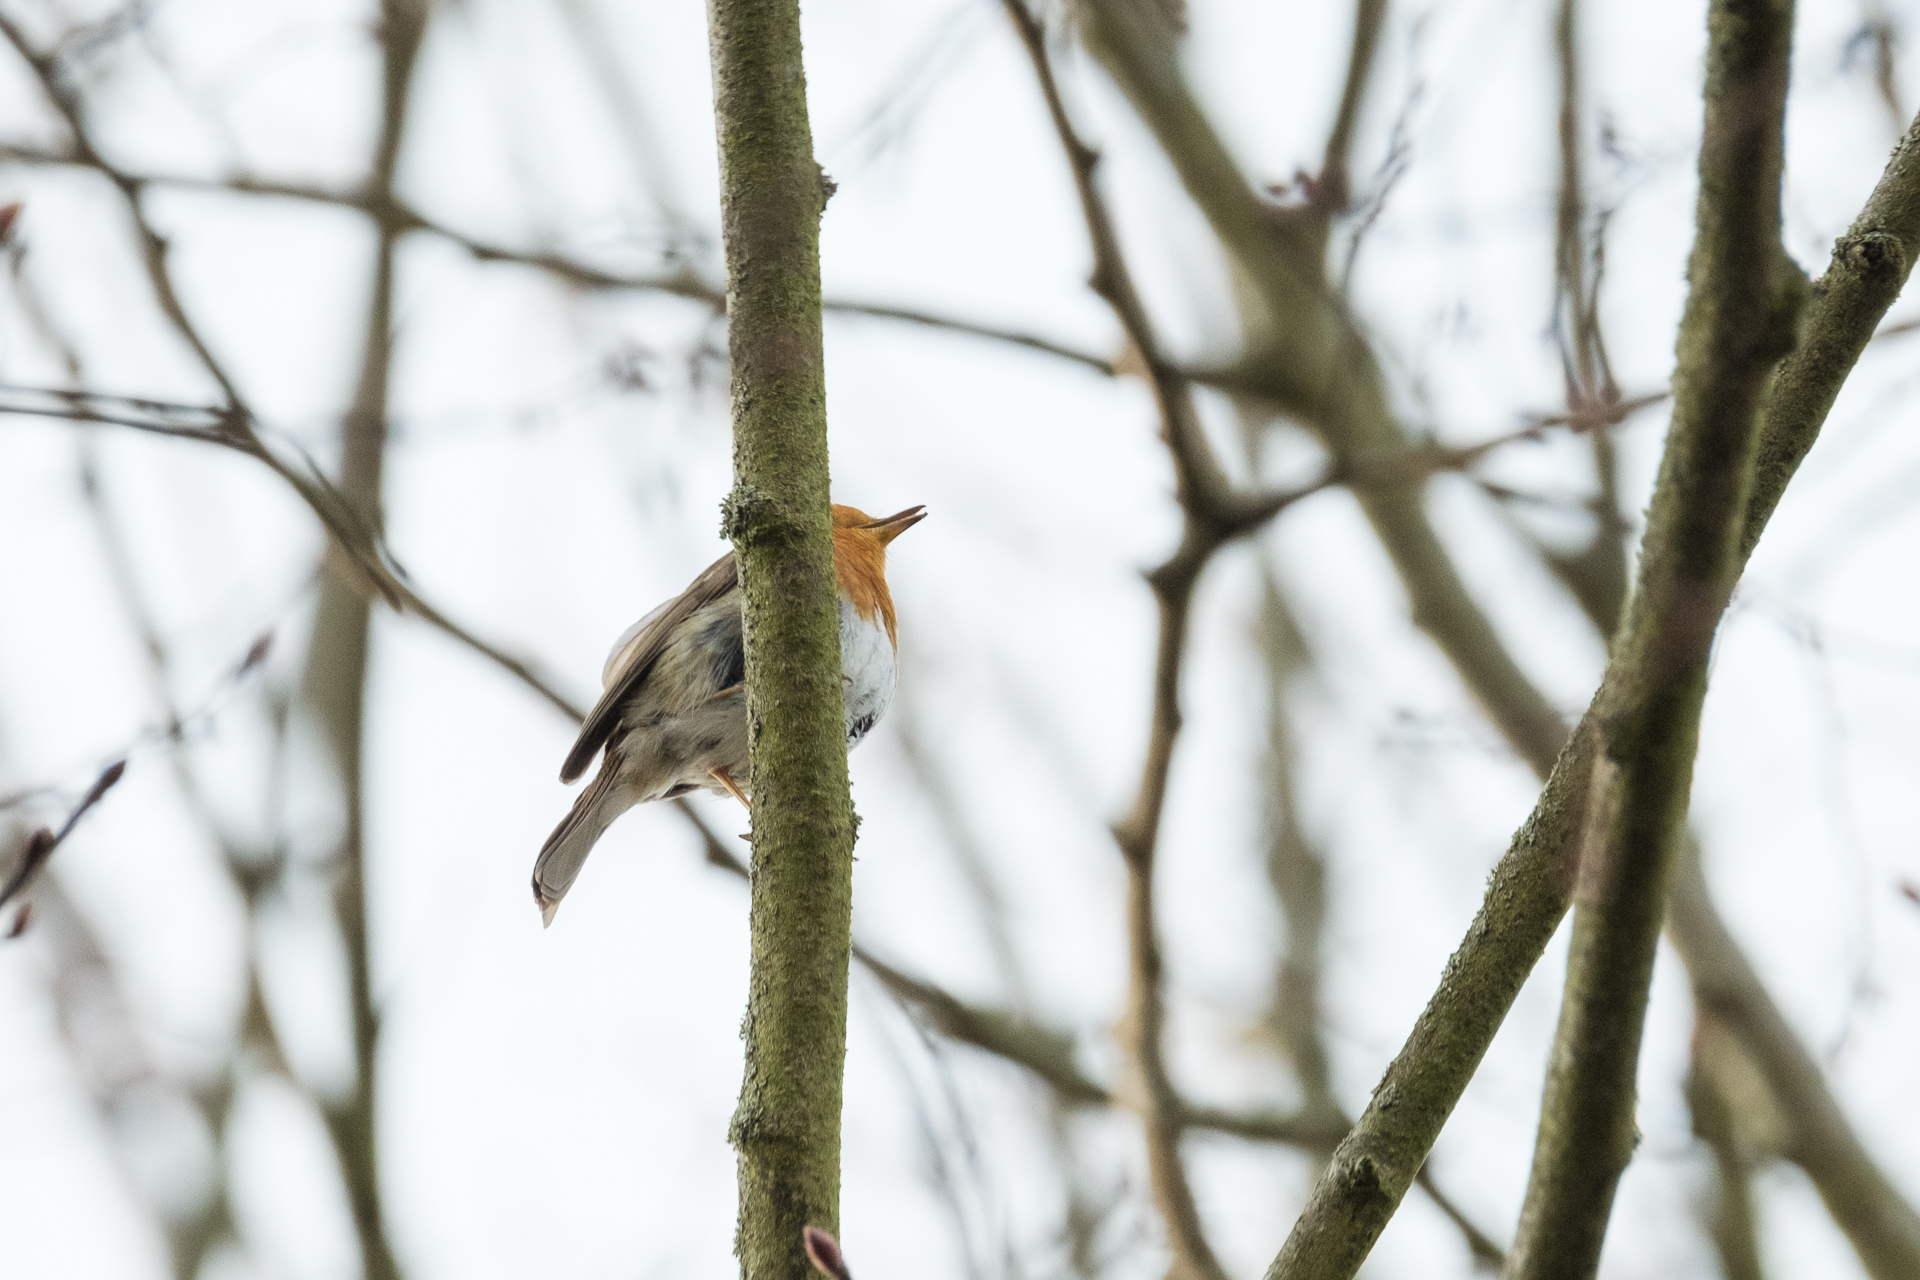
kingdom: Animalia
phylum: Chordata
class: Aves
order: Passeriformes
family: Muscicapidae
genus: Erithacus
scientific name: Erithacus rubecula
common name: European robin
